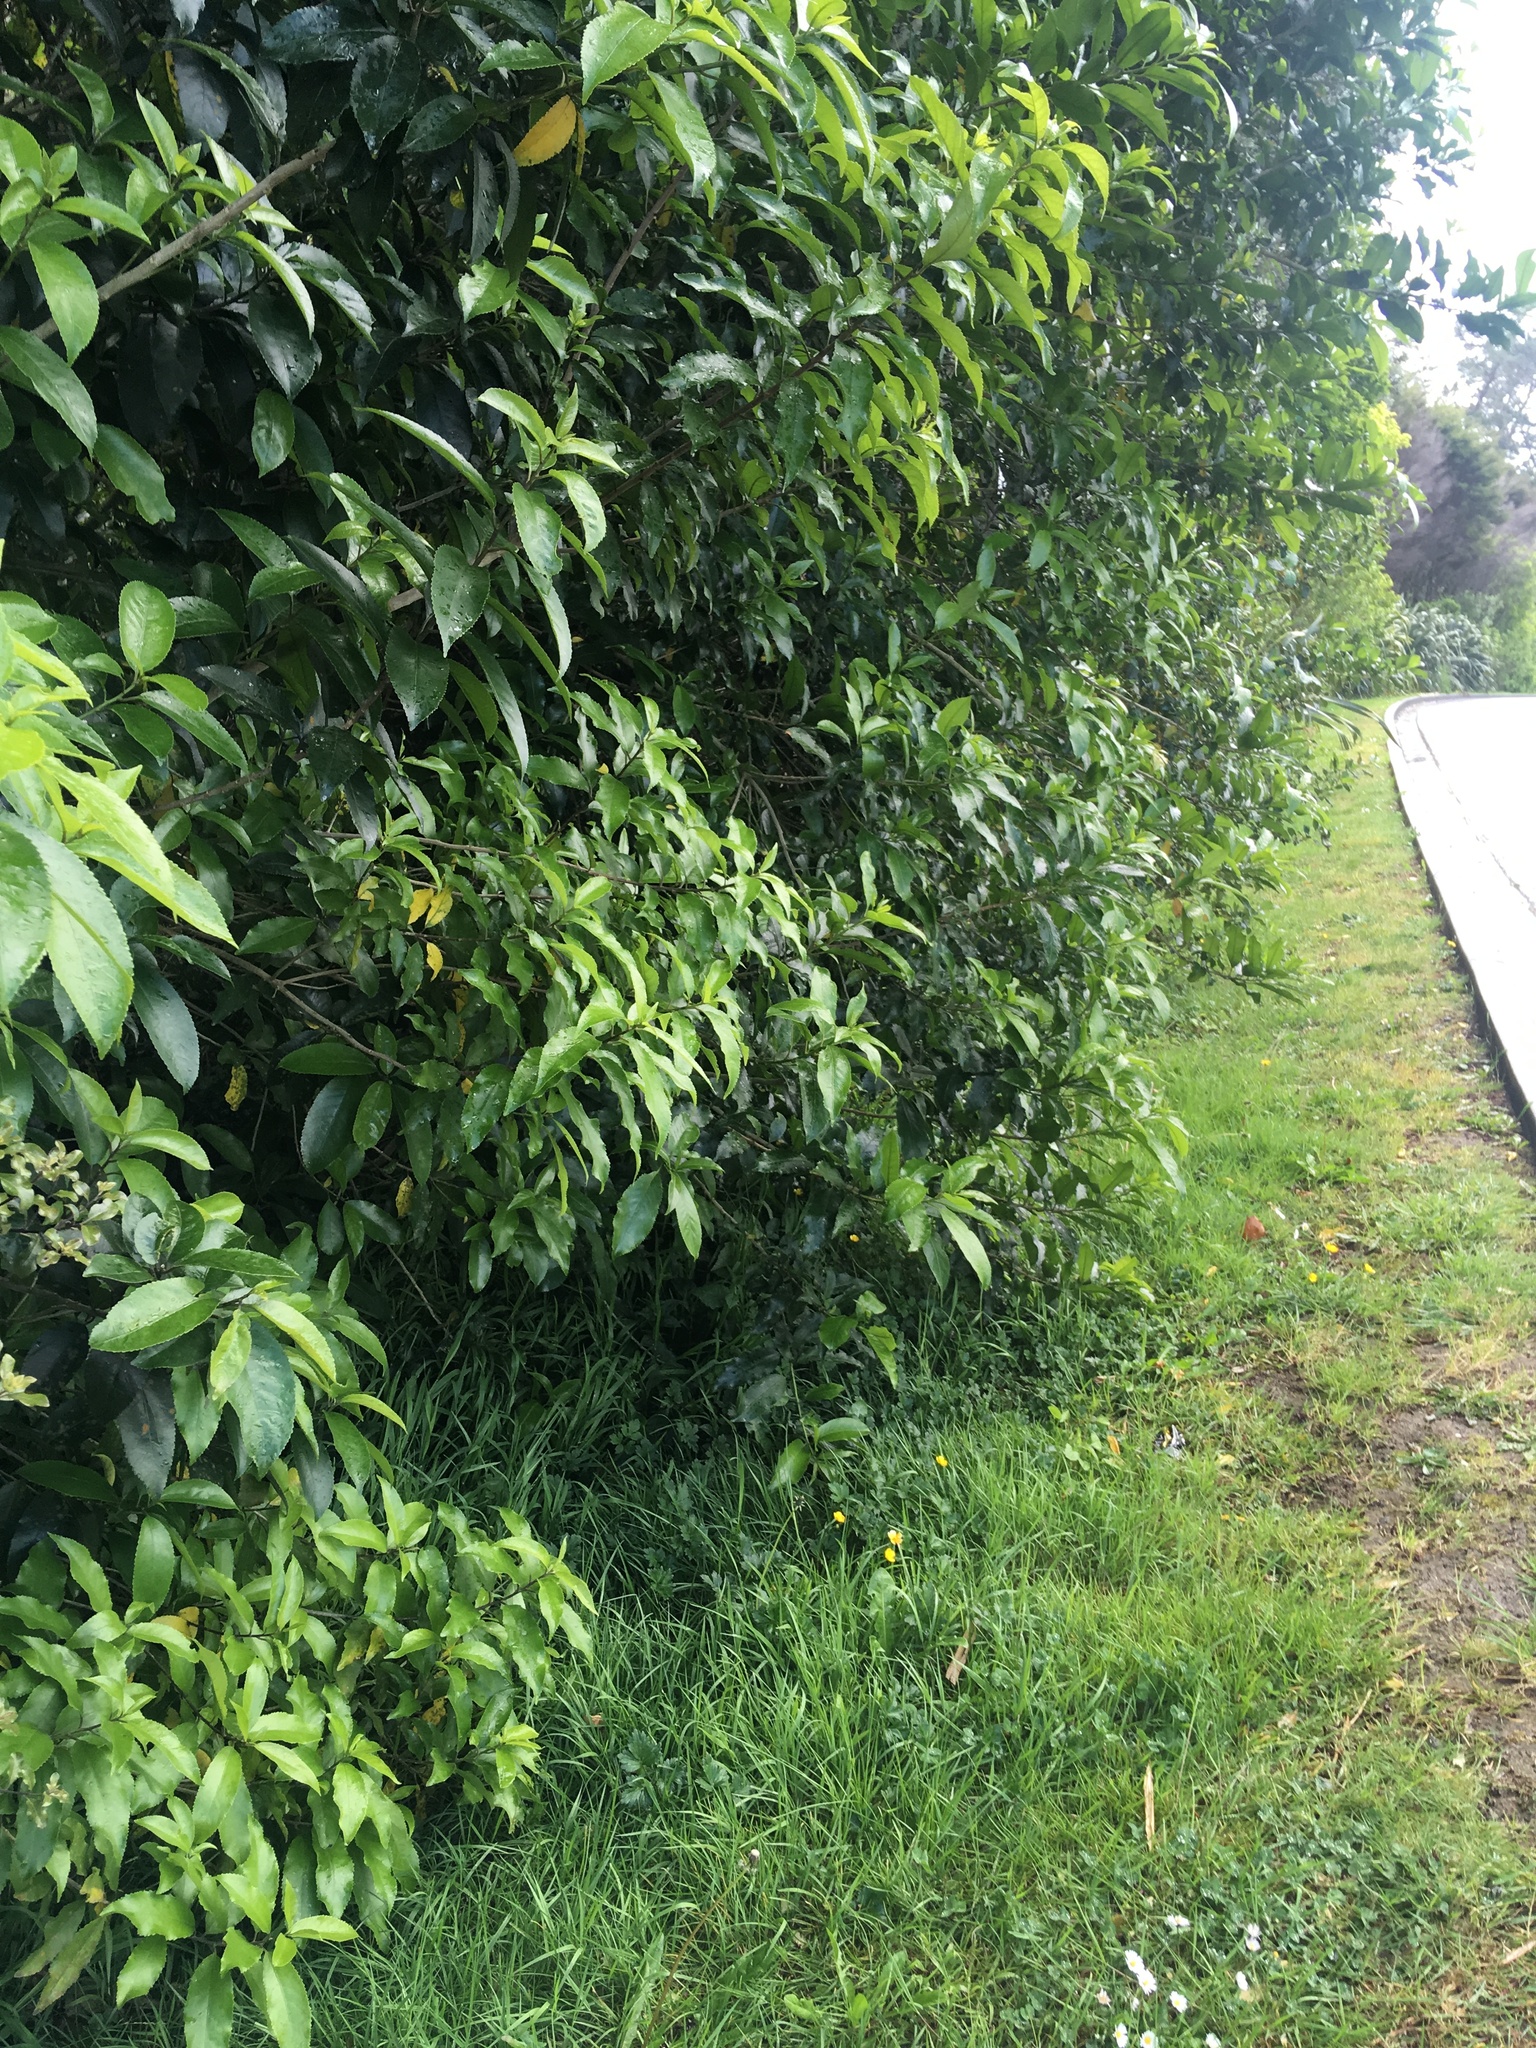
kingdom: Plantae
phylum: Tracheophyta
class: Magnoliopsida
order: Malpighiales
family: Violaceae
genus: Melicytus
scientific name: Melicytus ramiflorus
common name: Mahoe
